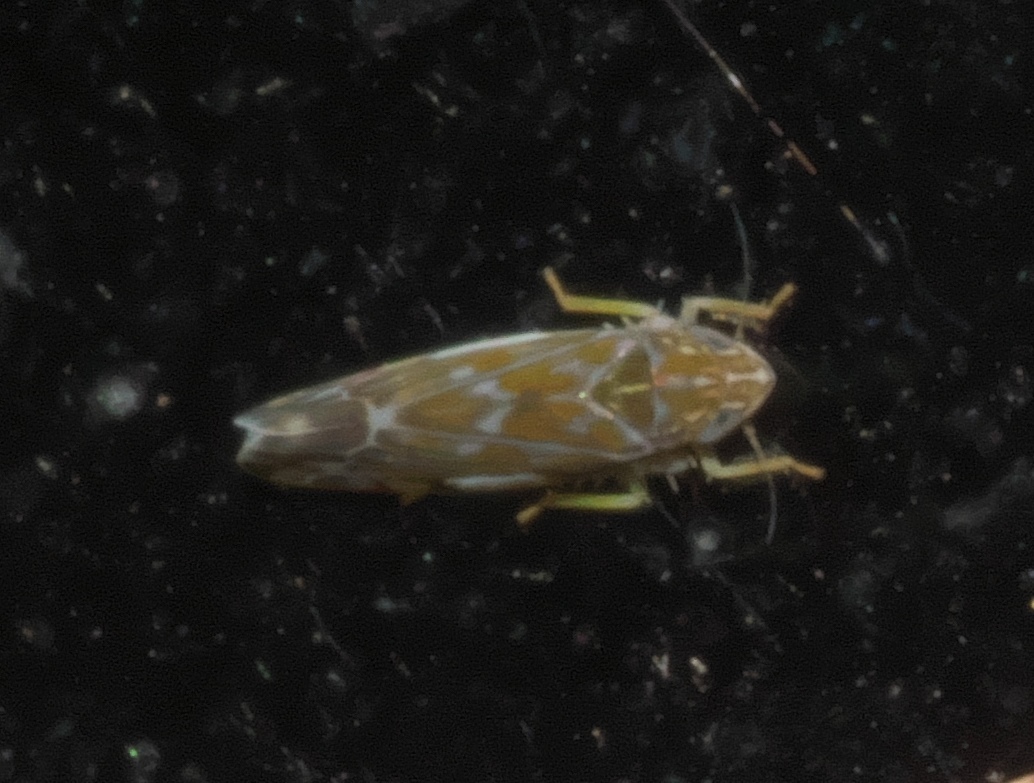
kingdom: Animalia
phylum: Arthropoda
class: Insecta
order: Hemiptera
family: Cicadellidae
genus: Erasmoneura
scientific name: Erasmoneura vulnerata
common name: The wounded leafhopper
